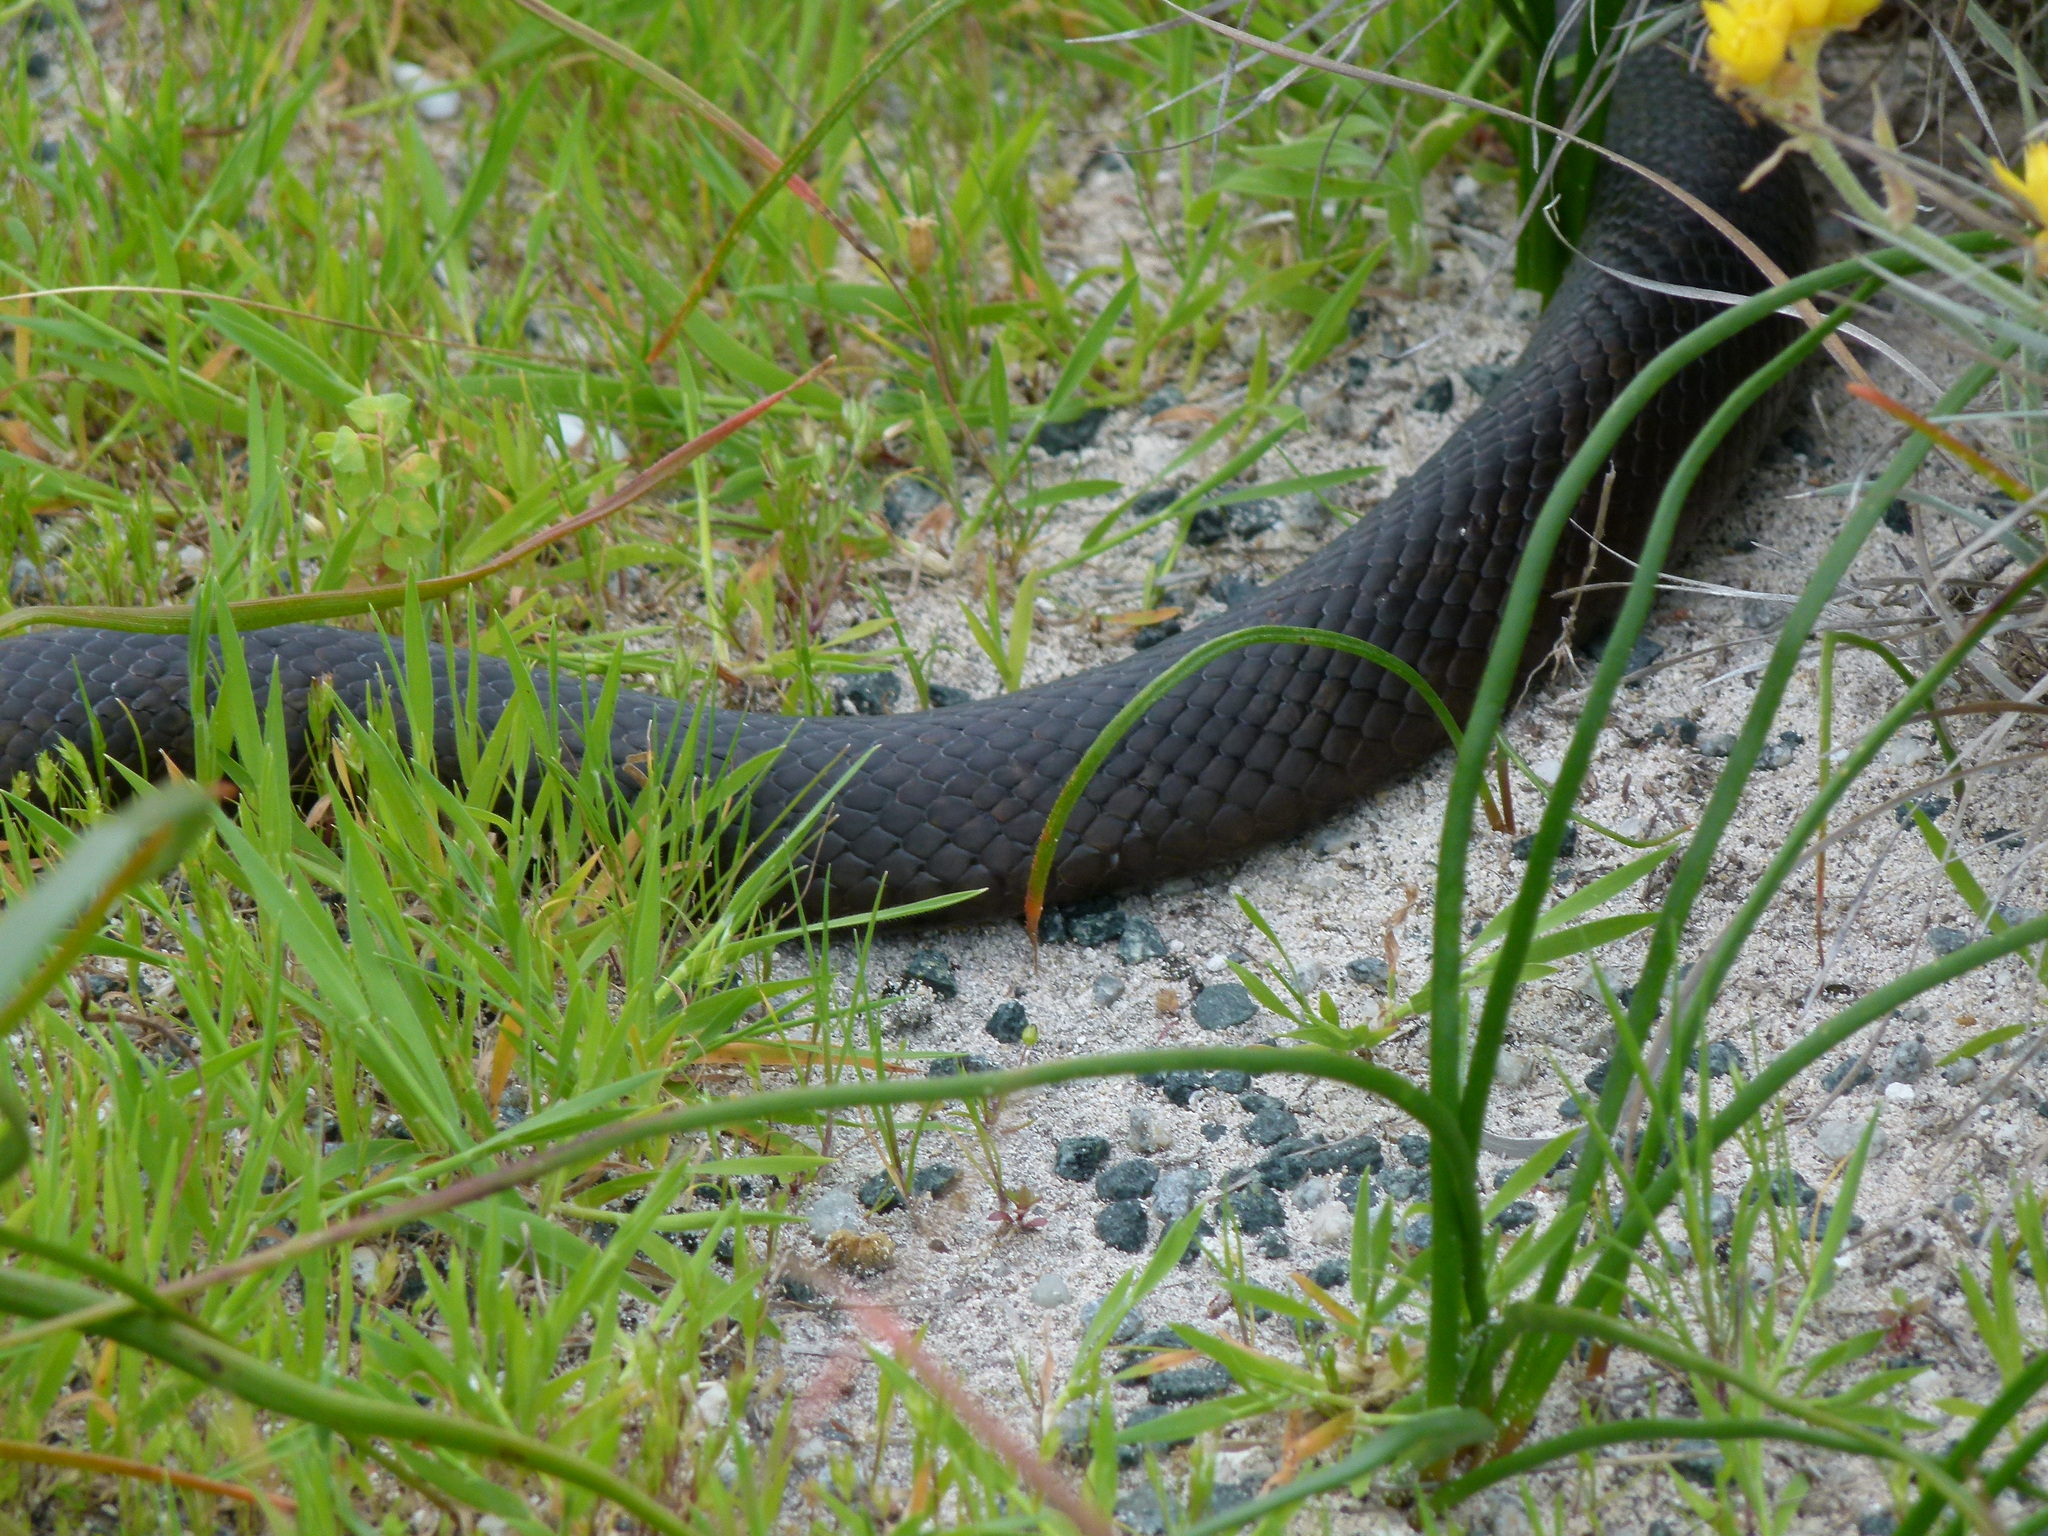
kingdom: Animalia
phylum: Chordata
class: Squamata
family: Elapidae
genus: Pseudonaja
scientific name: Pseudonaja affinis
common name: Dugite
